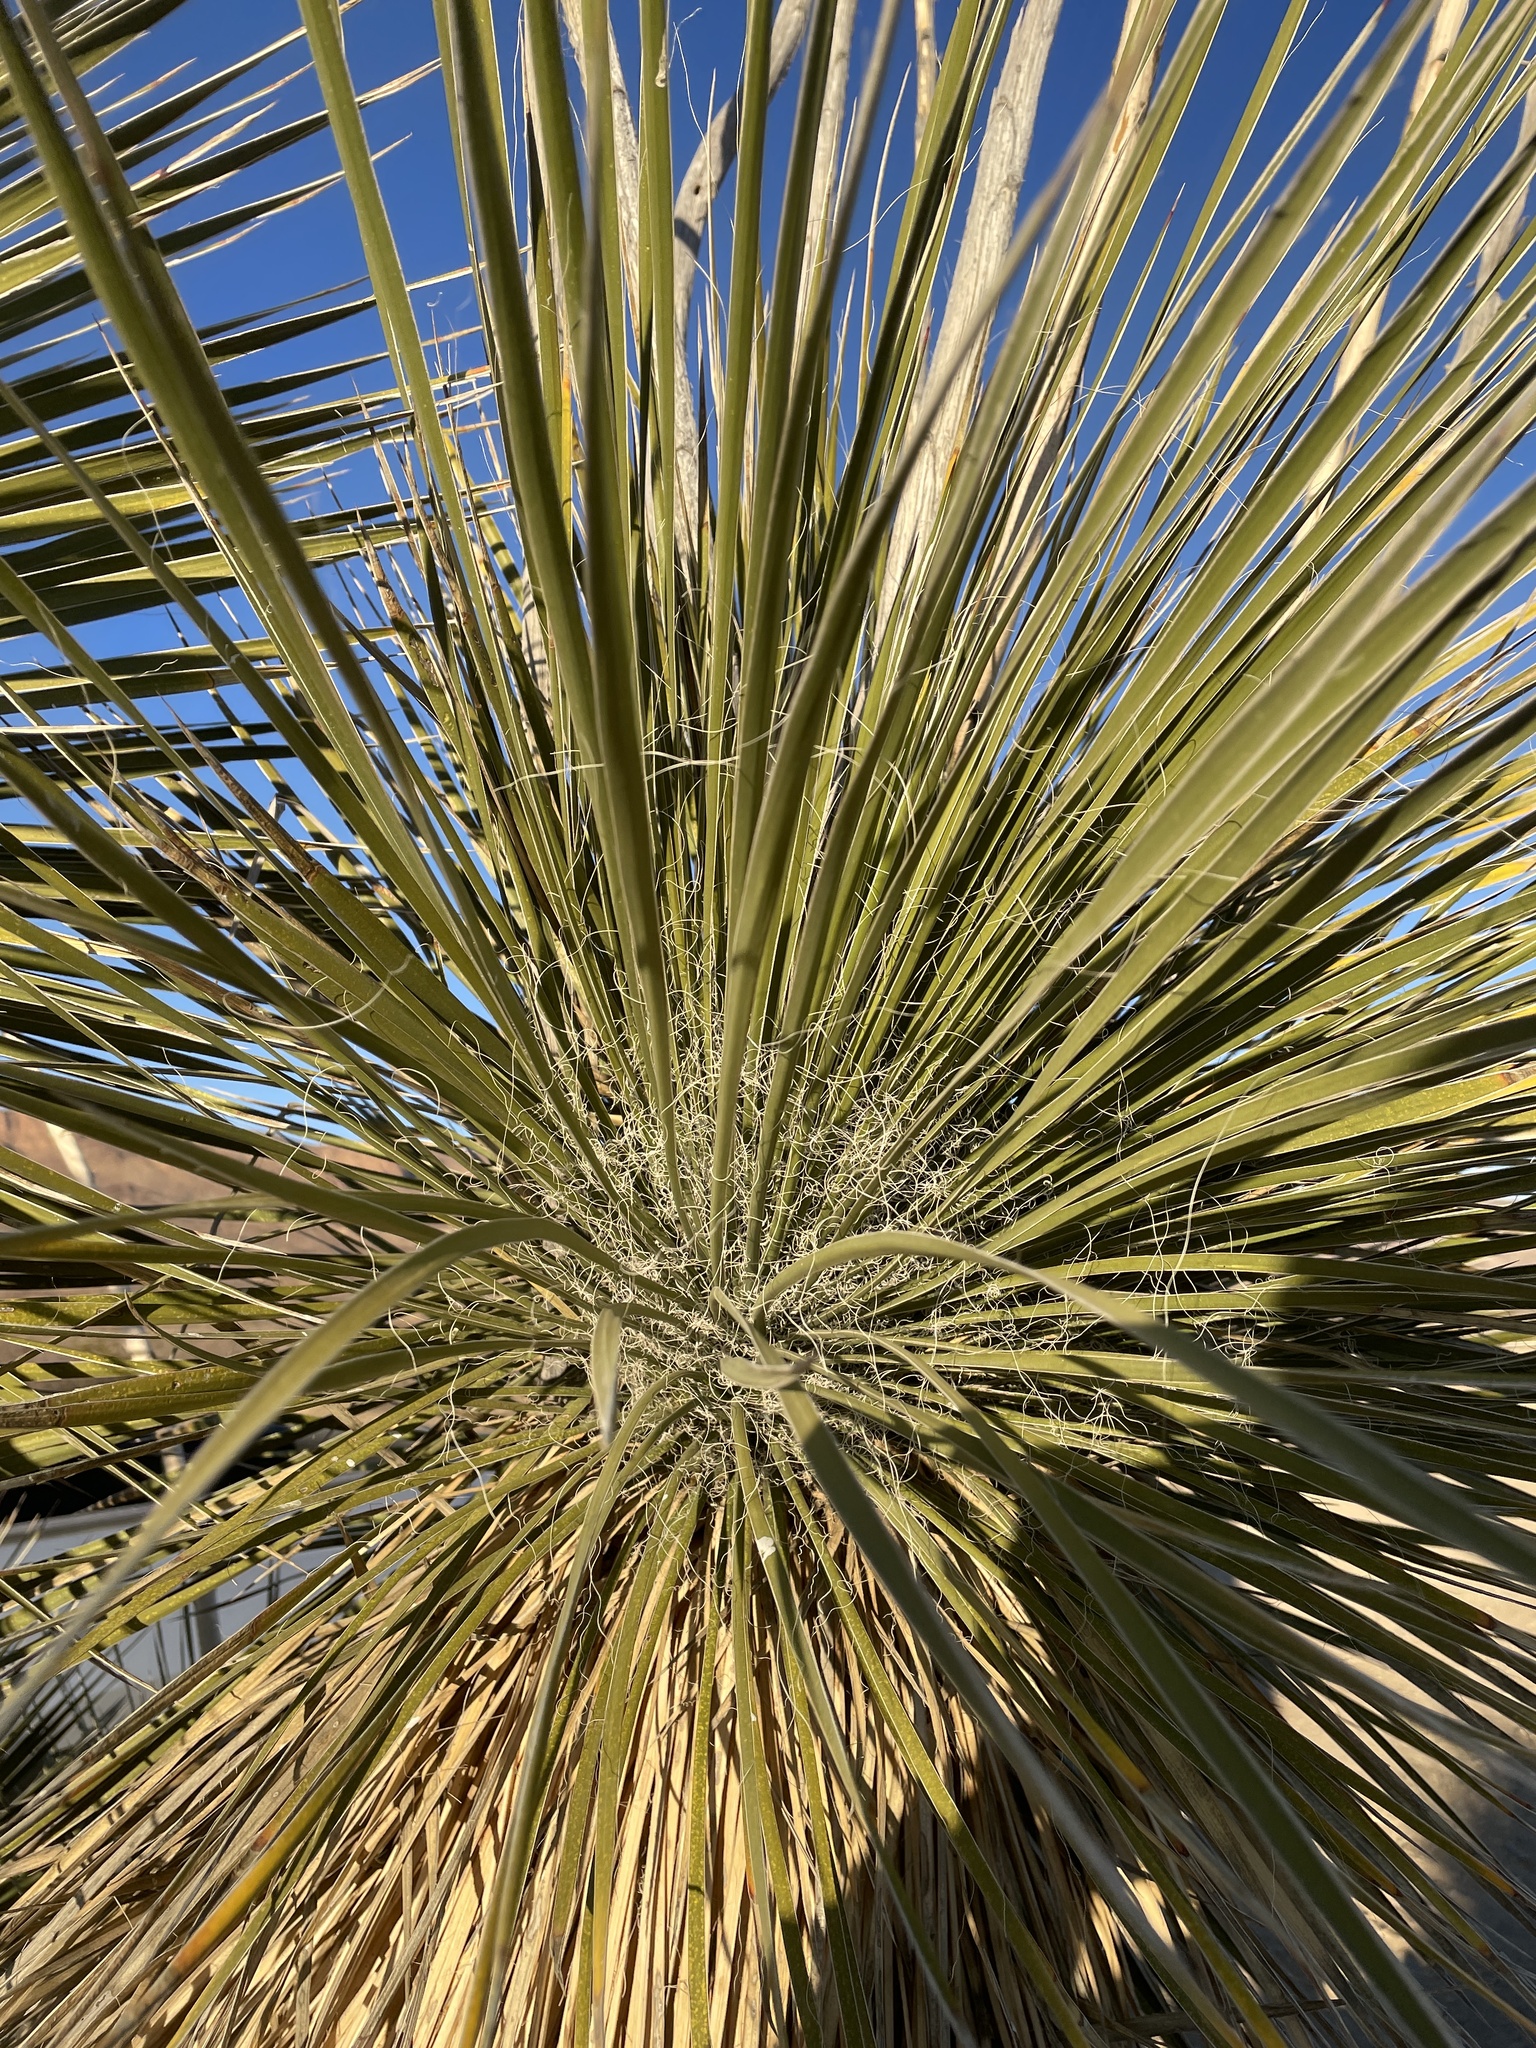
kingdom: Plantae
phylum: Tracheophyta
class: Liliopsida
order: Asparagales
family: Asparagaceae
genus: Yucca
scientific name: Yucca elata
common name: Palmella
